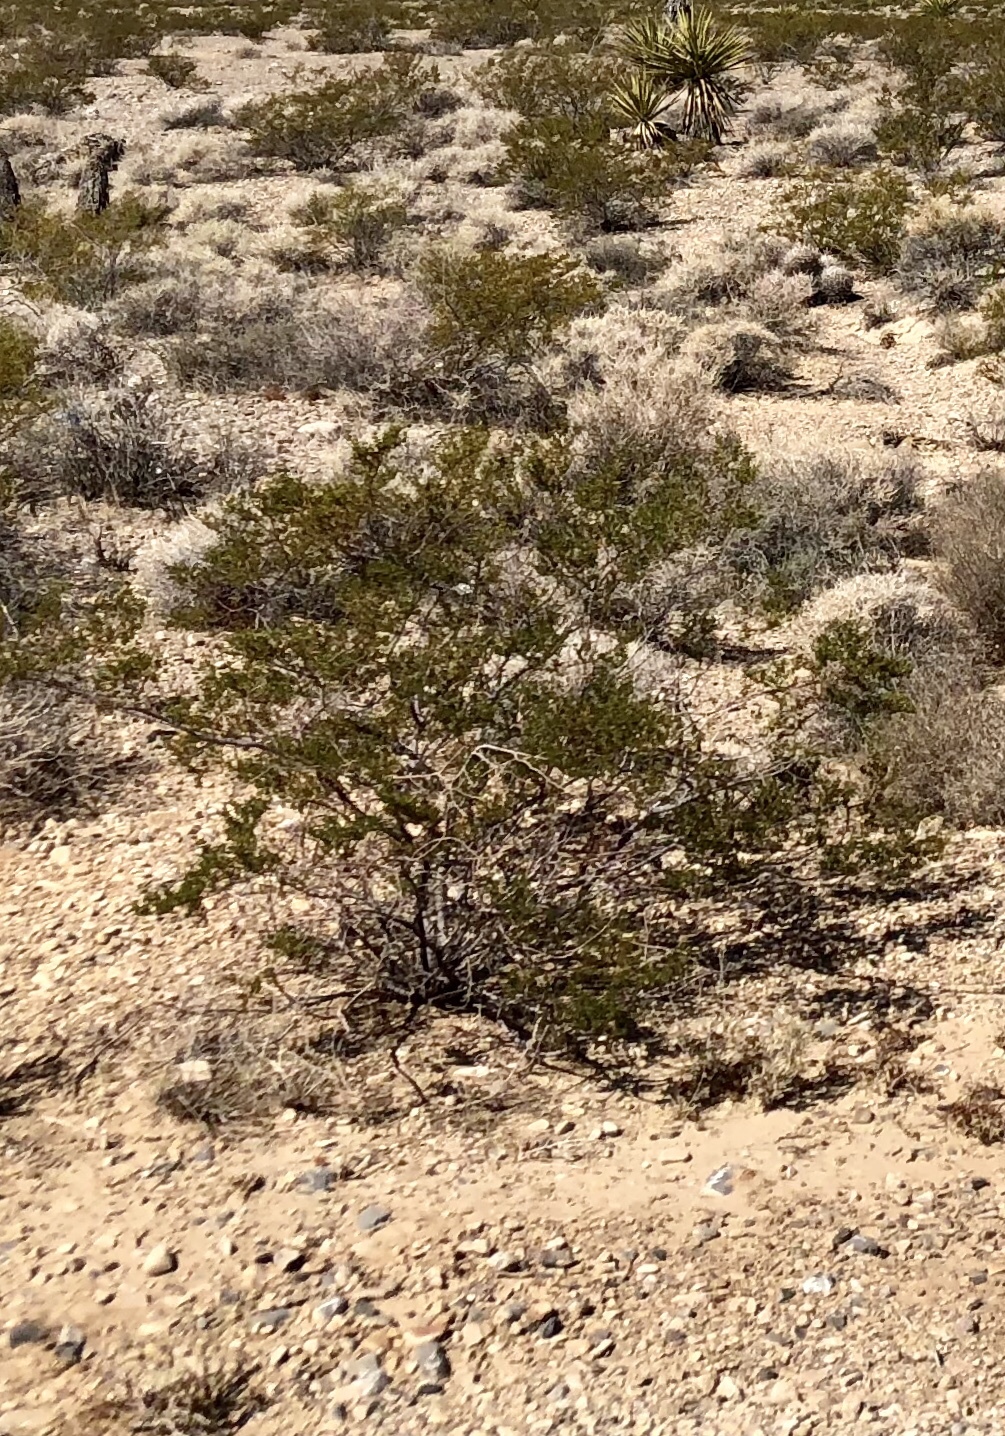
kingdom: Plantae
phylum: Tracheophyta
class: Magnoliopsida
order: Zygophyllales
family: Zygophyllaceae
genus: Larrea
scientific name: Larrea tridentata
